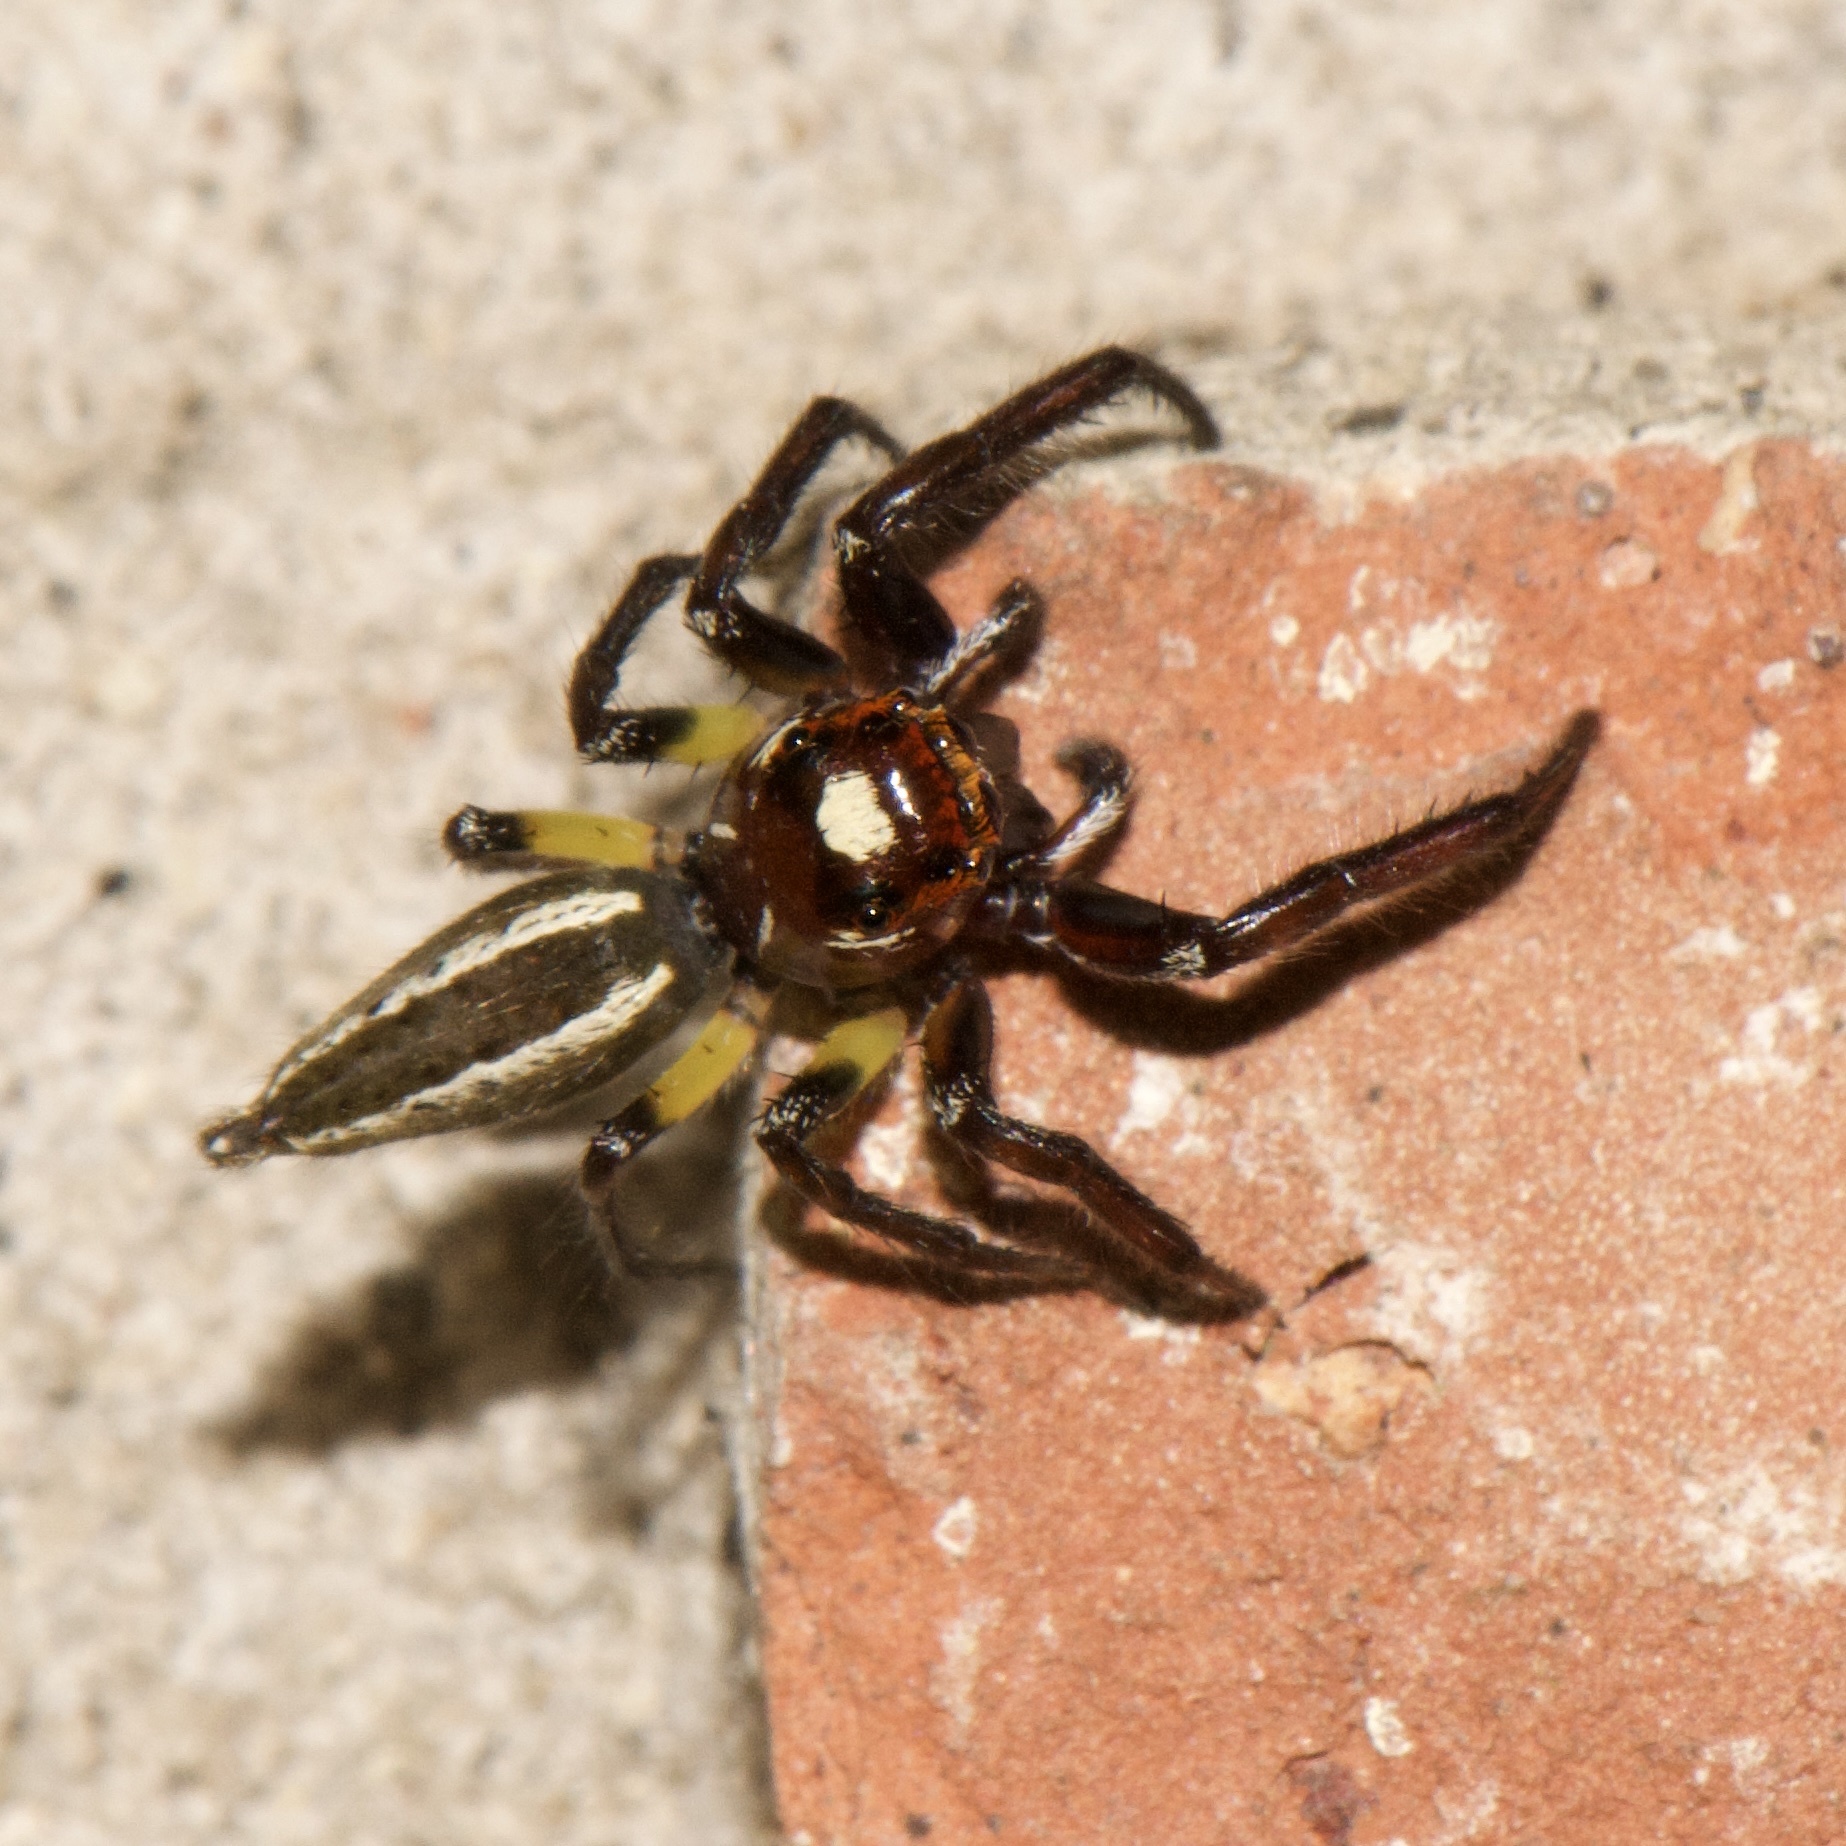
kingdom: Animalia
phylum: Arthropoda
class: Arachnida
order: Araneae
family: Salticidae
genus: Colonus
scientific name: Colonus sylvanus
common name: Jumping spiders
